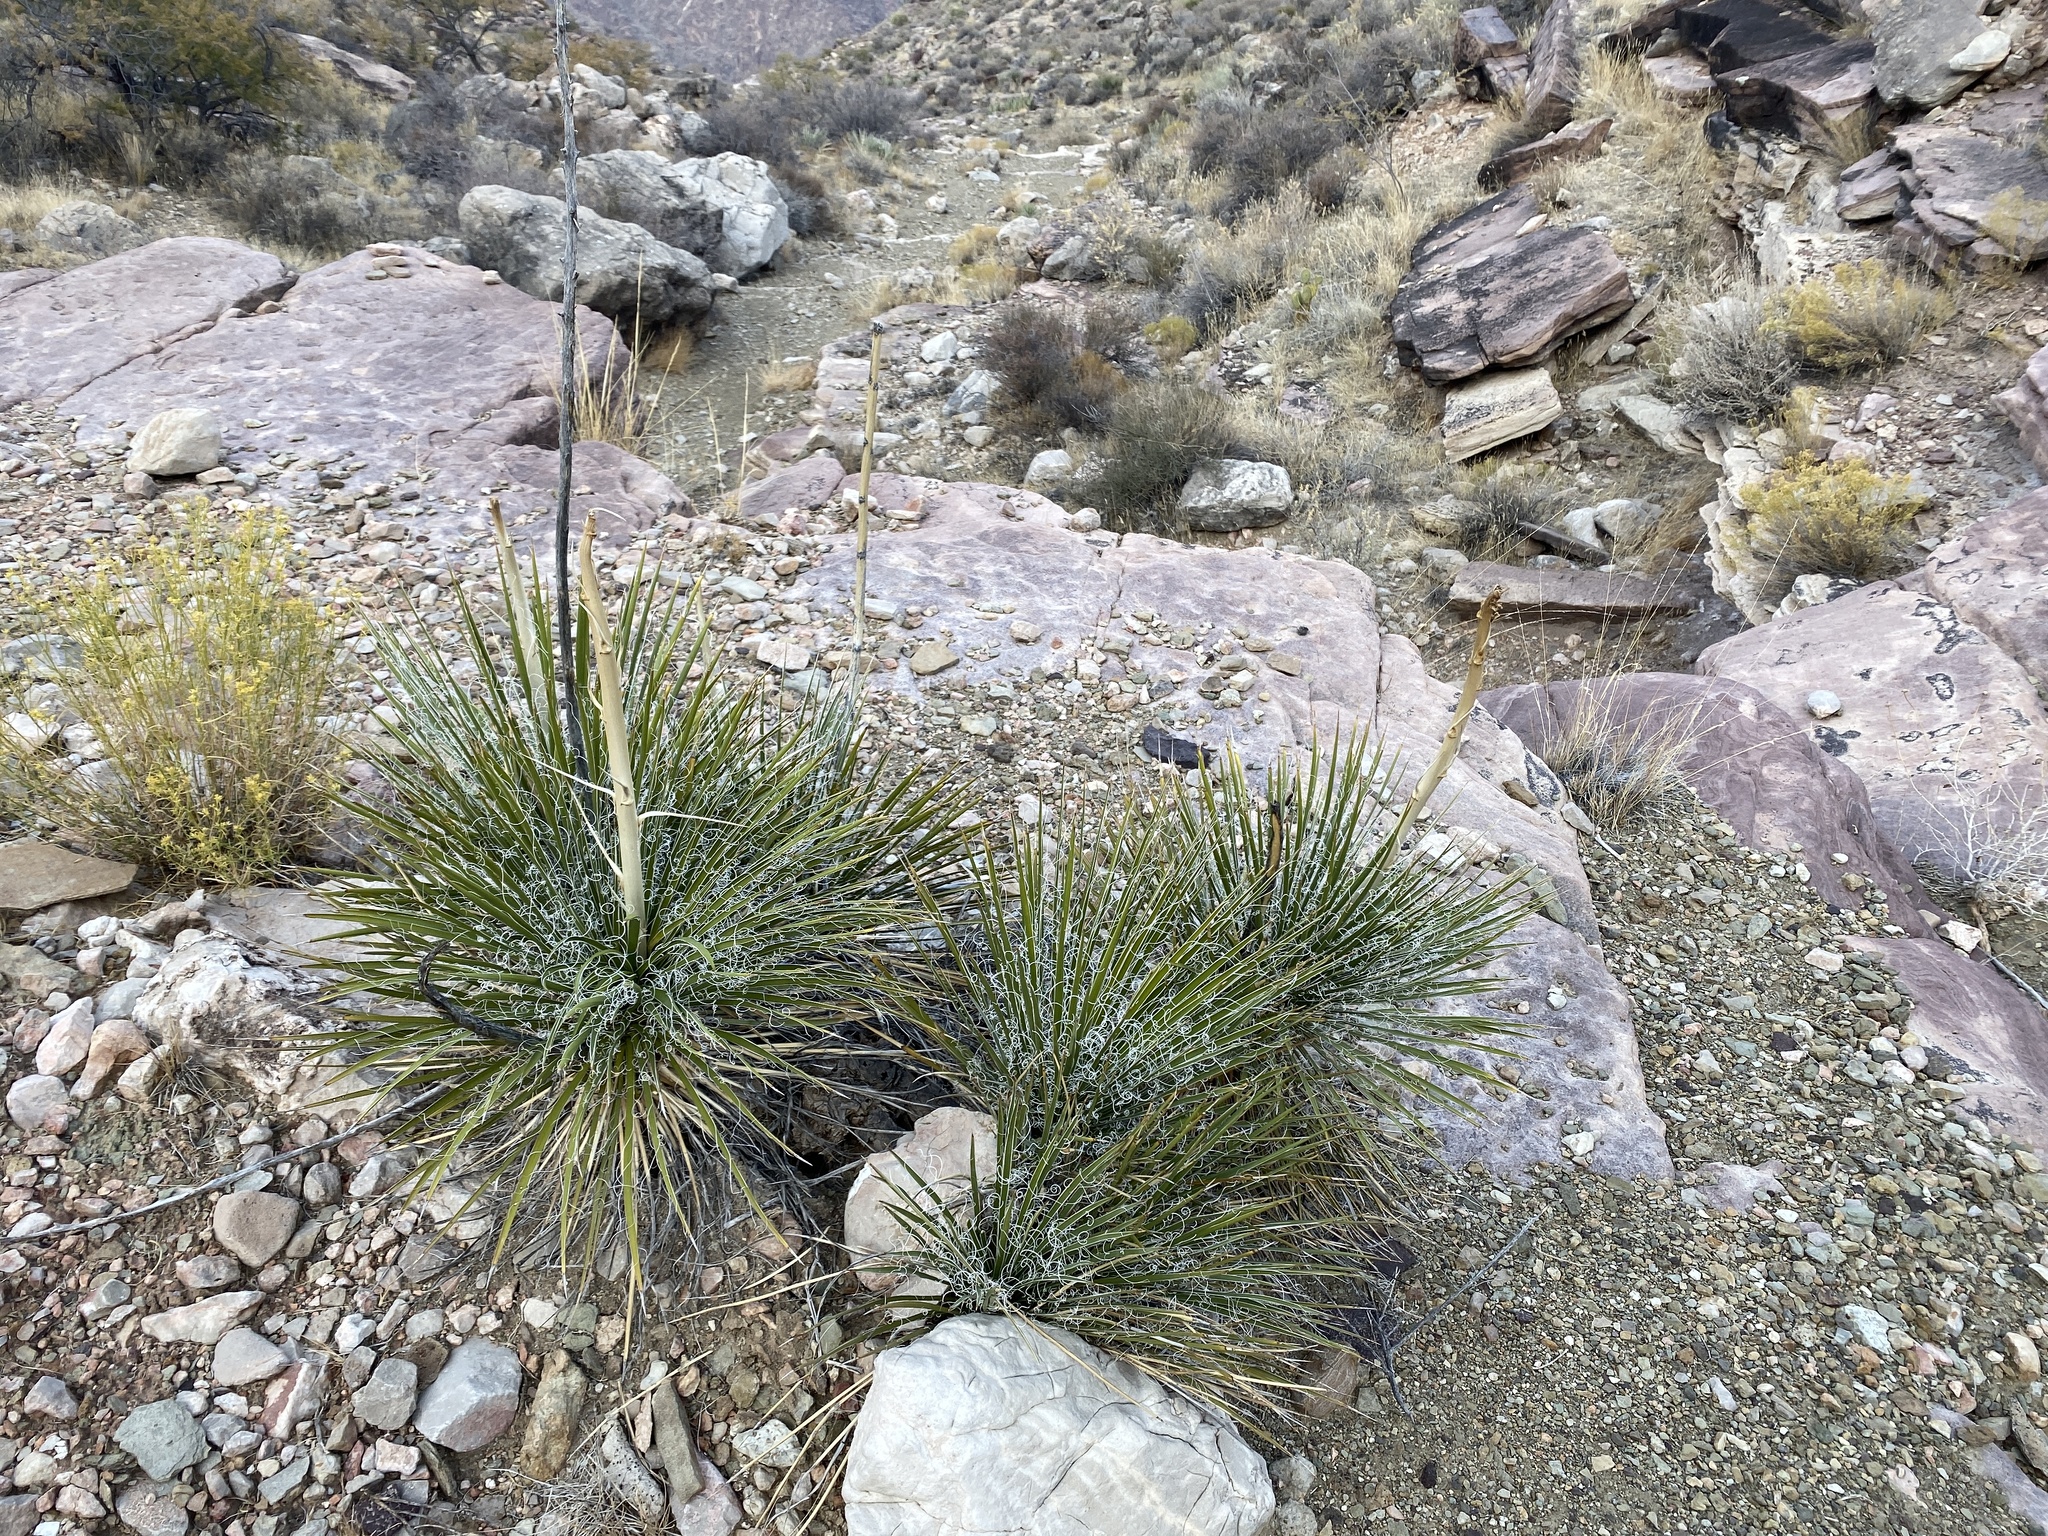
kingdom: Plantae
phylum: Tracheophyta
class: Liliopsida
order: Asparagales
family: Asparagaceae
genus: Yucca
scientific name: Yucca angustissima
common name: Narrowleaf yucca
